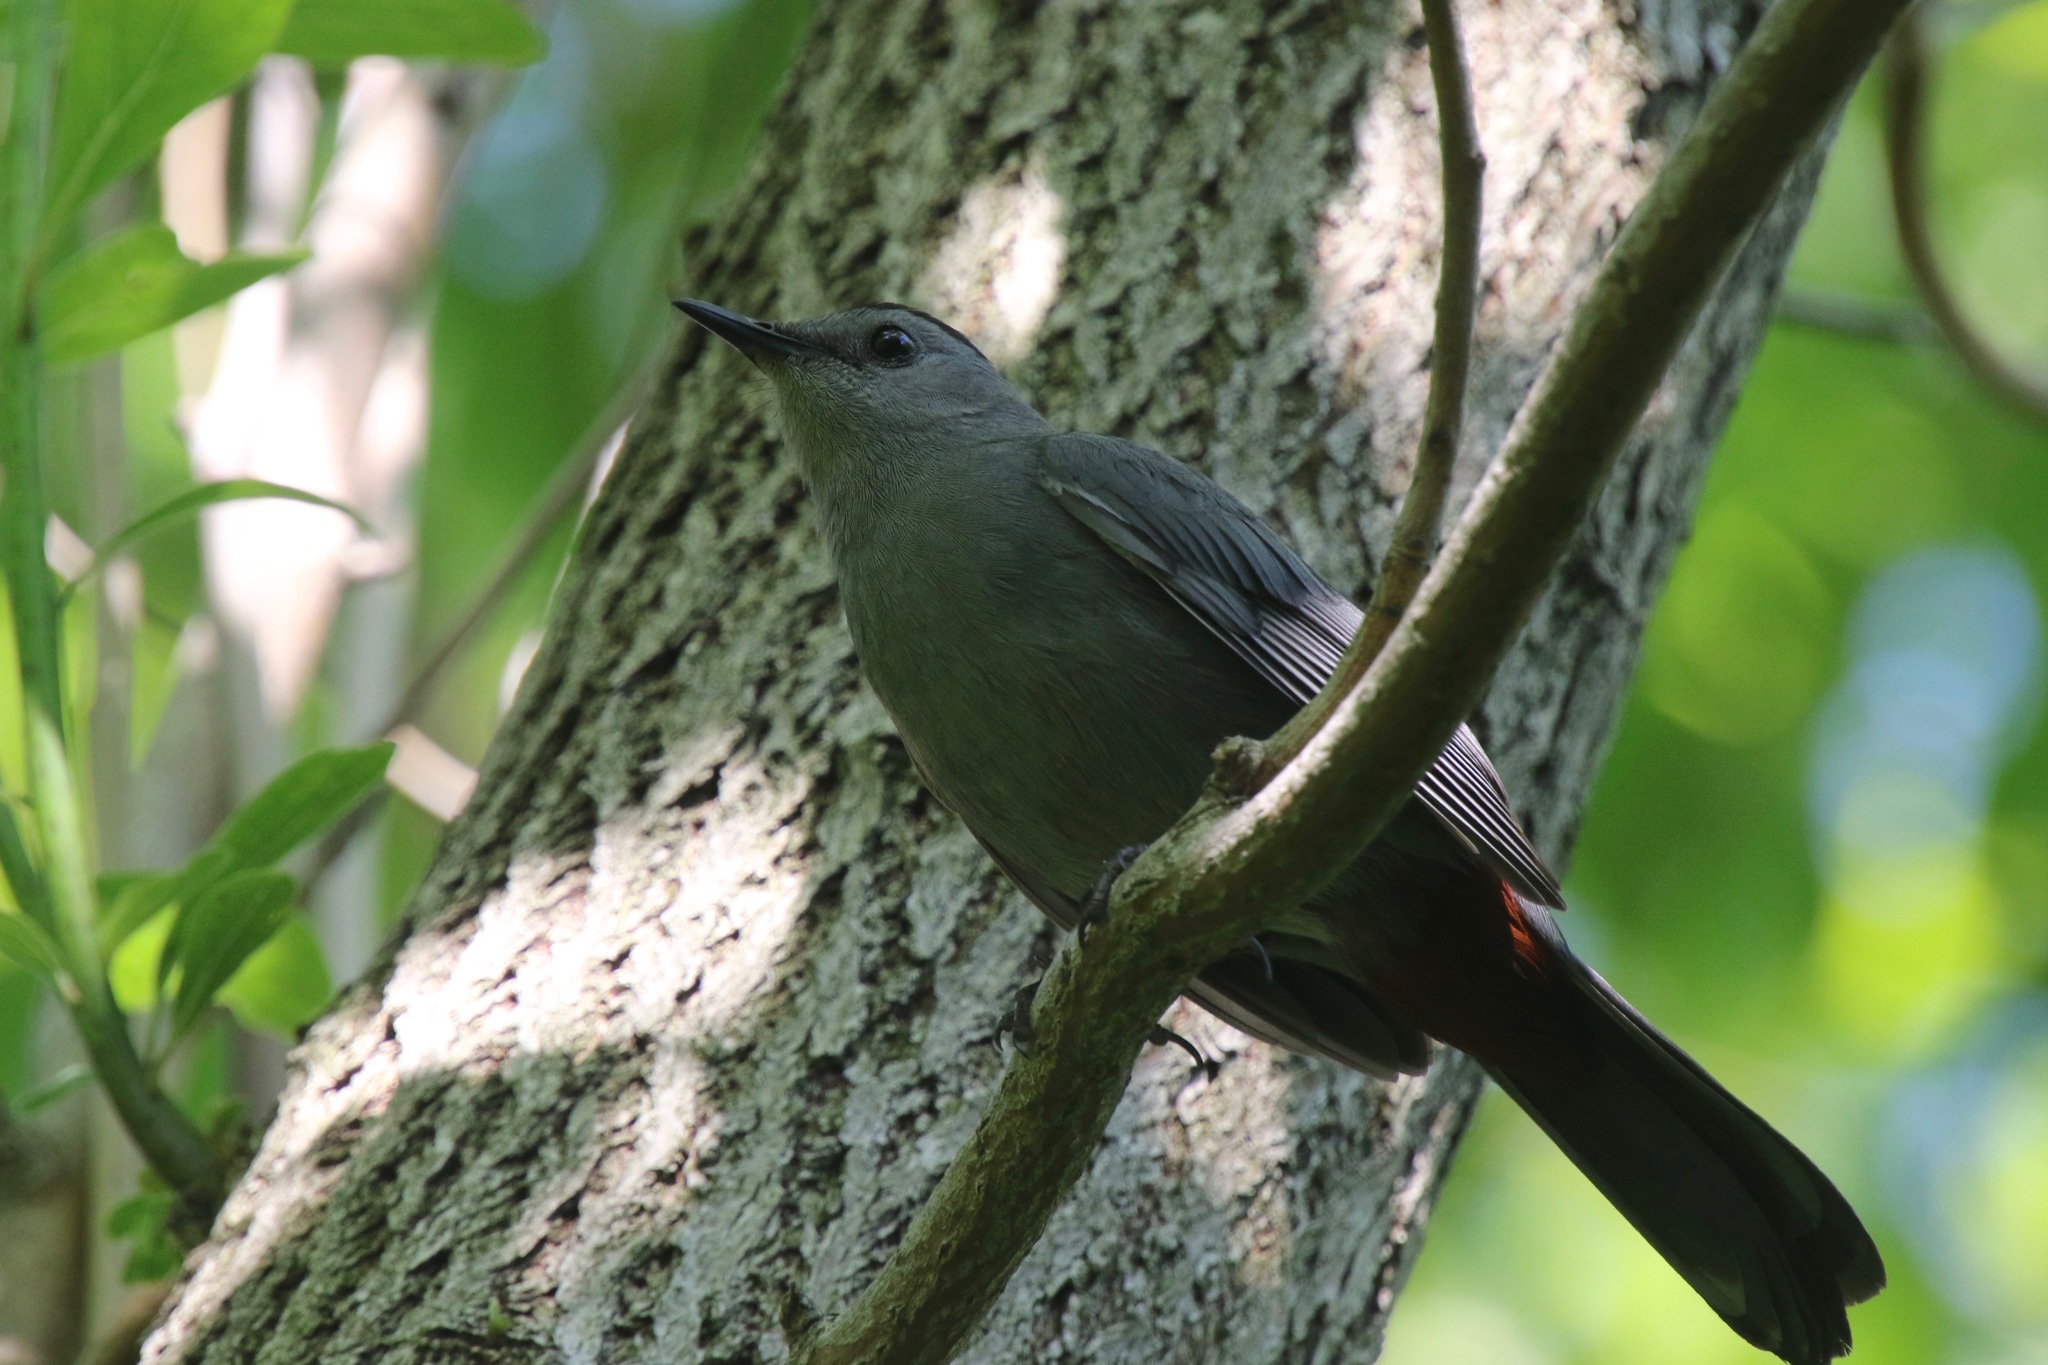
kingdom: Animalia
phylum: Chordata
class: Aves
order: Passeriformes
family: Mimidae
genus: Dumetella
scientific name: Dumetella carolinensis
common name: Gray catbird
